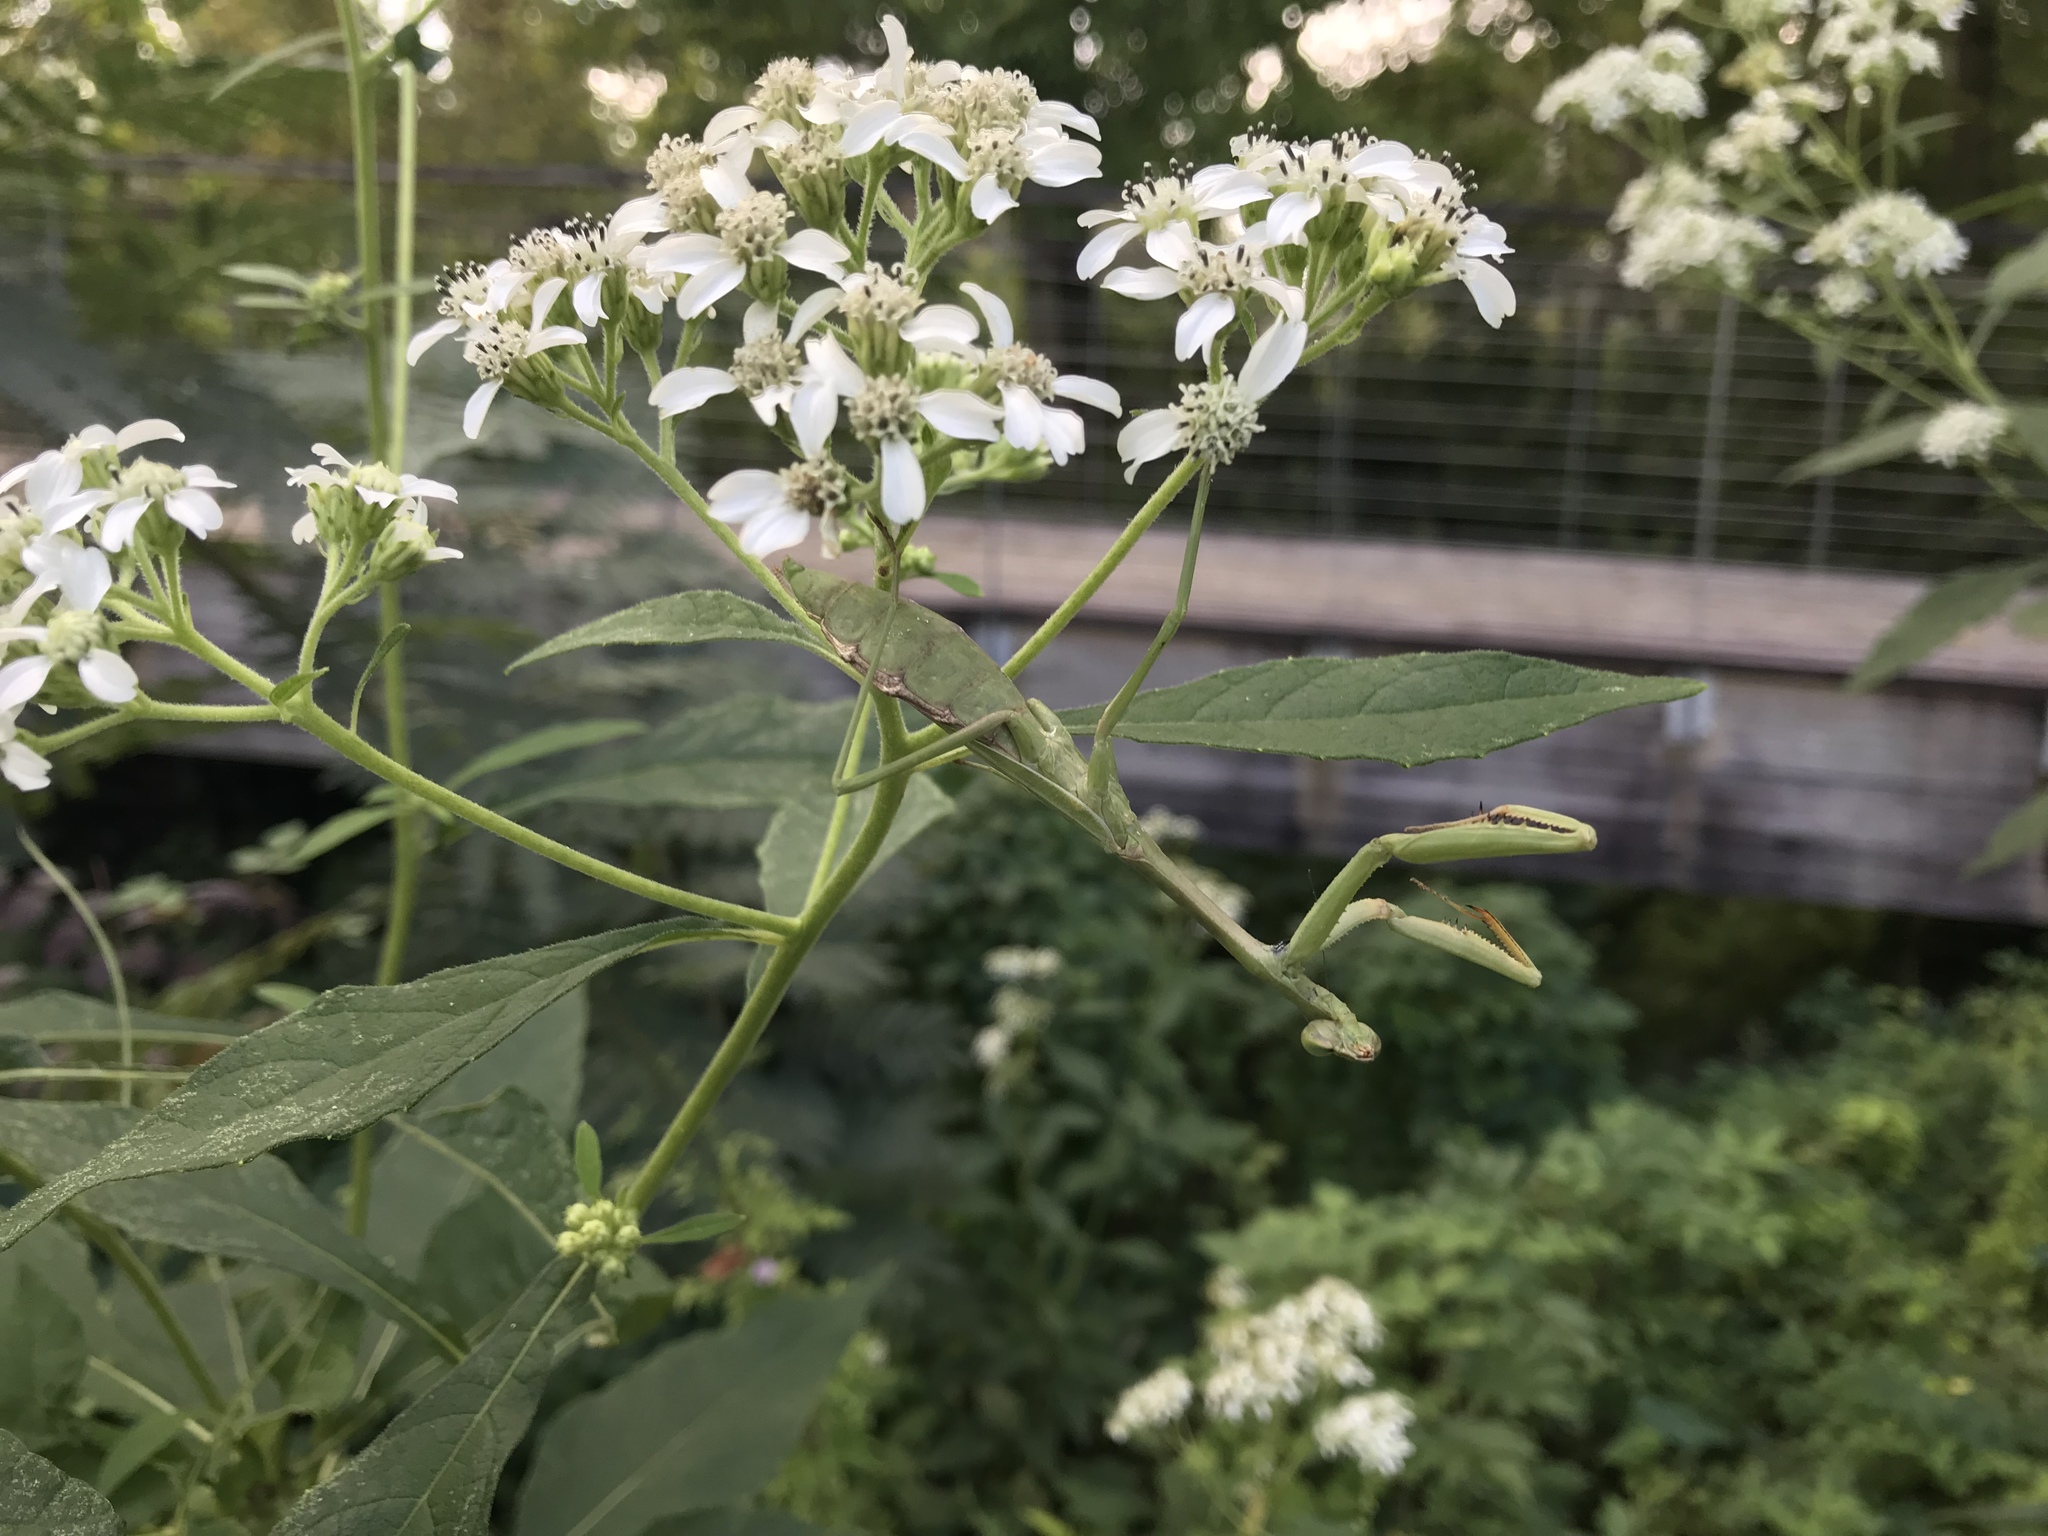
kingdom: Animalia
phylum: Arthropoda
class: Insecta
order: Mantodea
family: Mantidae
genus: Stagmomantis
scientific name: Stagmomantis carolina
